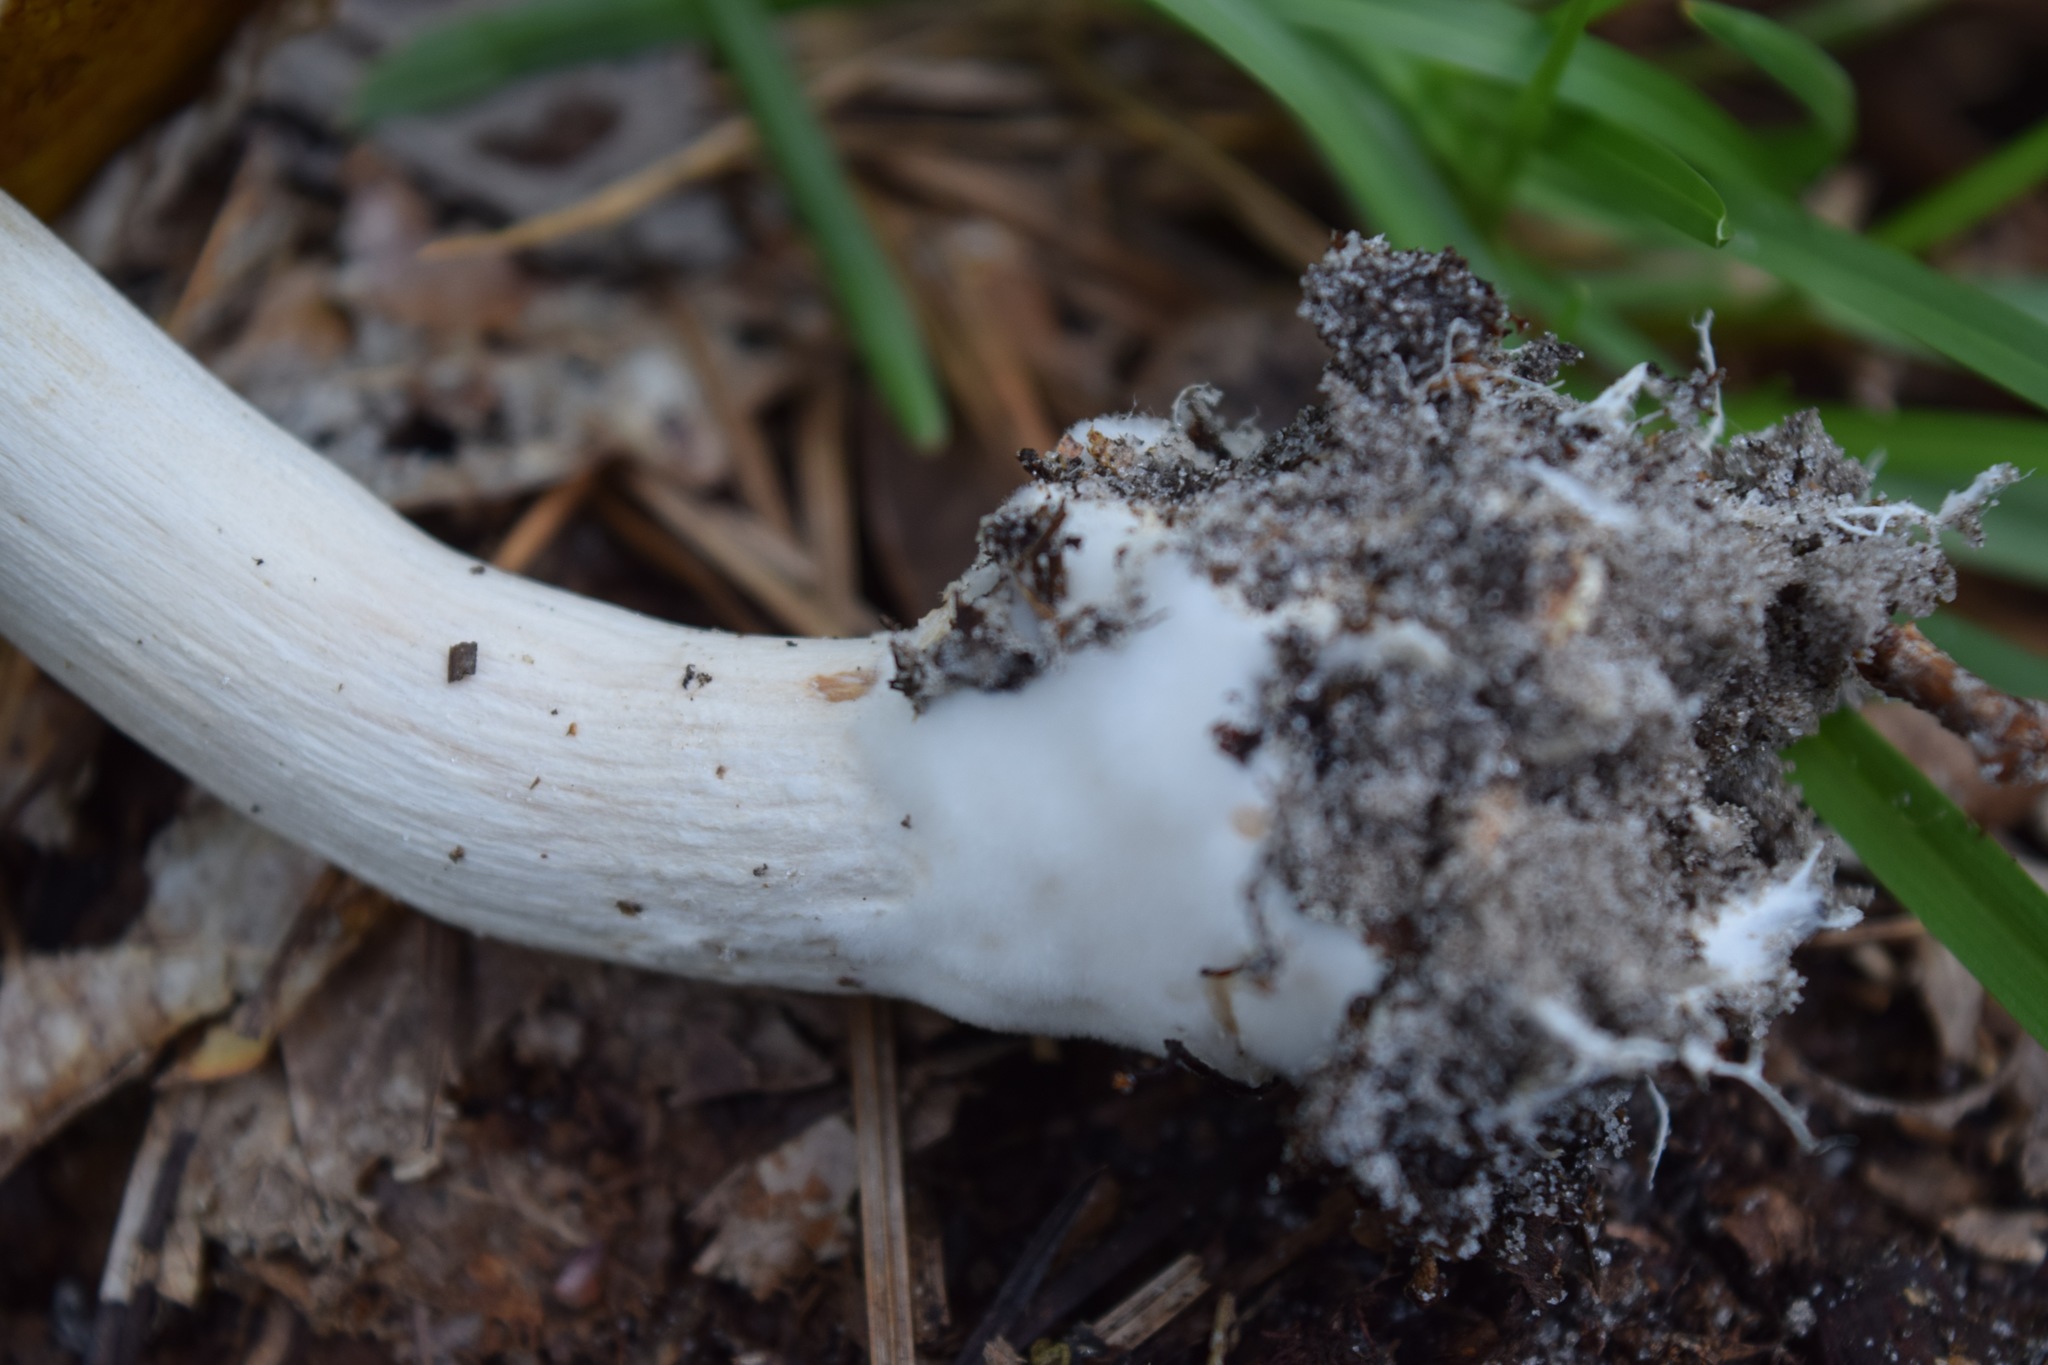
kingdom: Fungi
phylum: Basidiomycota
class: Agaricomycetes
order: Boletales
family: Boletaceae
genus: Boletellus
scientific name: Boletellus ananas
